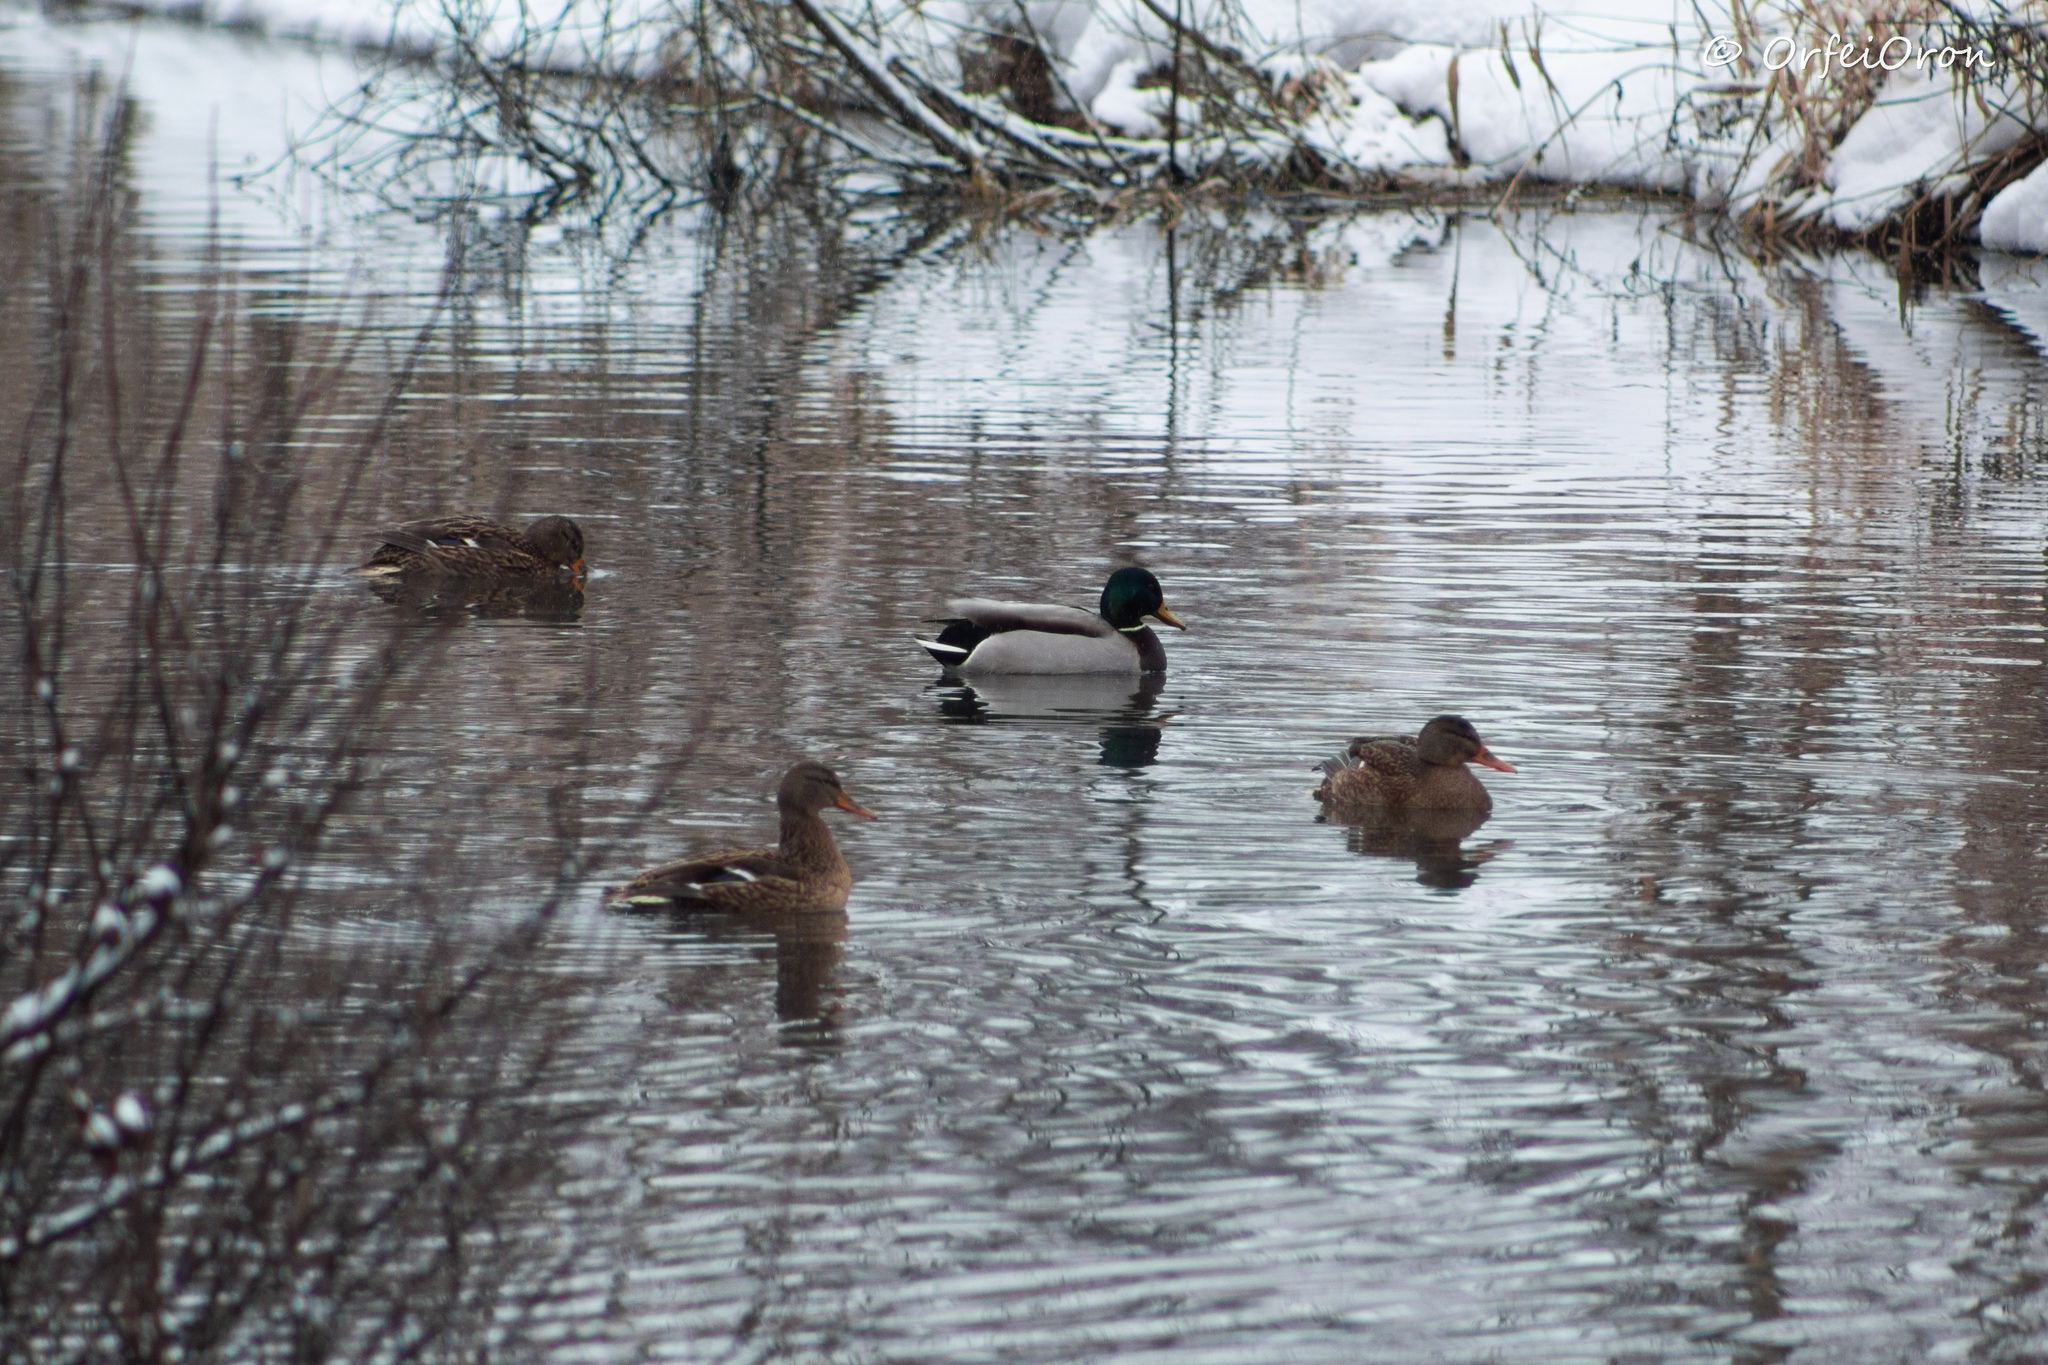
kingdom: Animalia
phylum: Chordata
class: Aves
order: Anseriformes
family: Anatidae
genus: Anas
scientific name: Anas platyrhynchos
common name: Mallard
